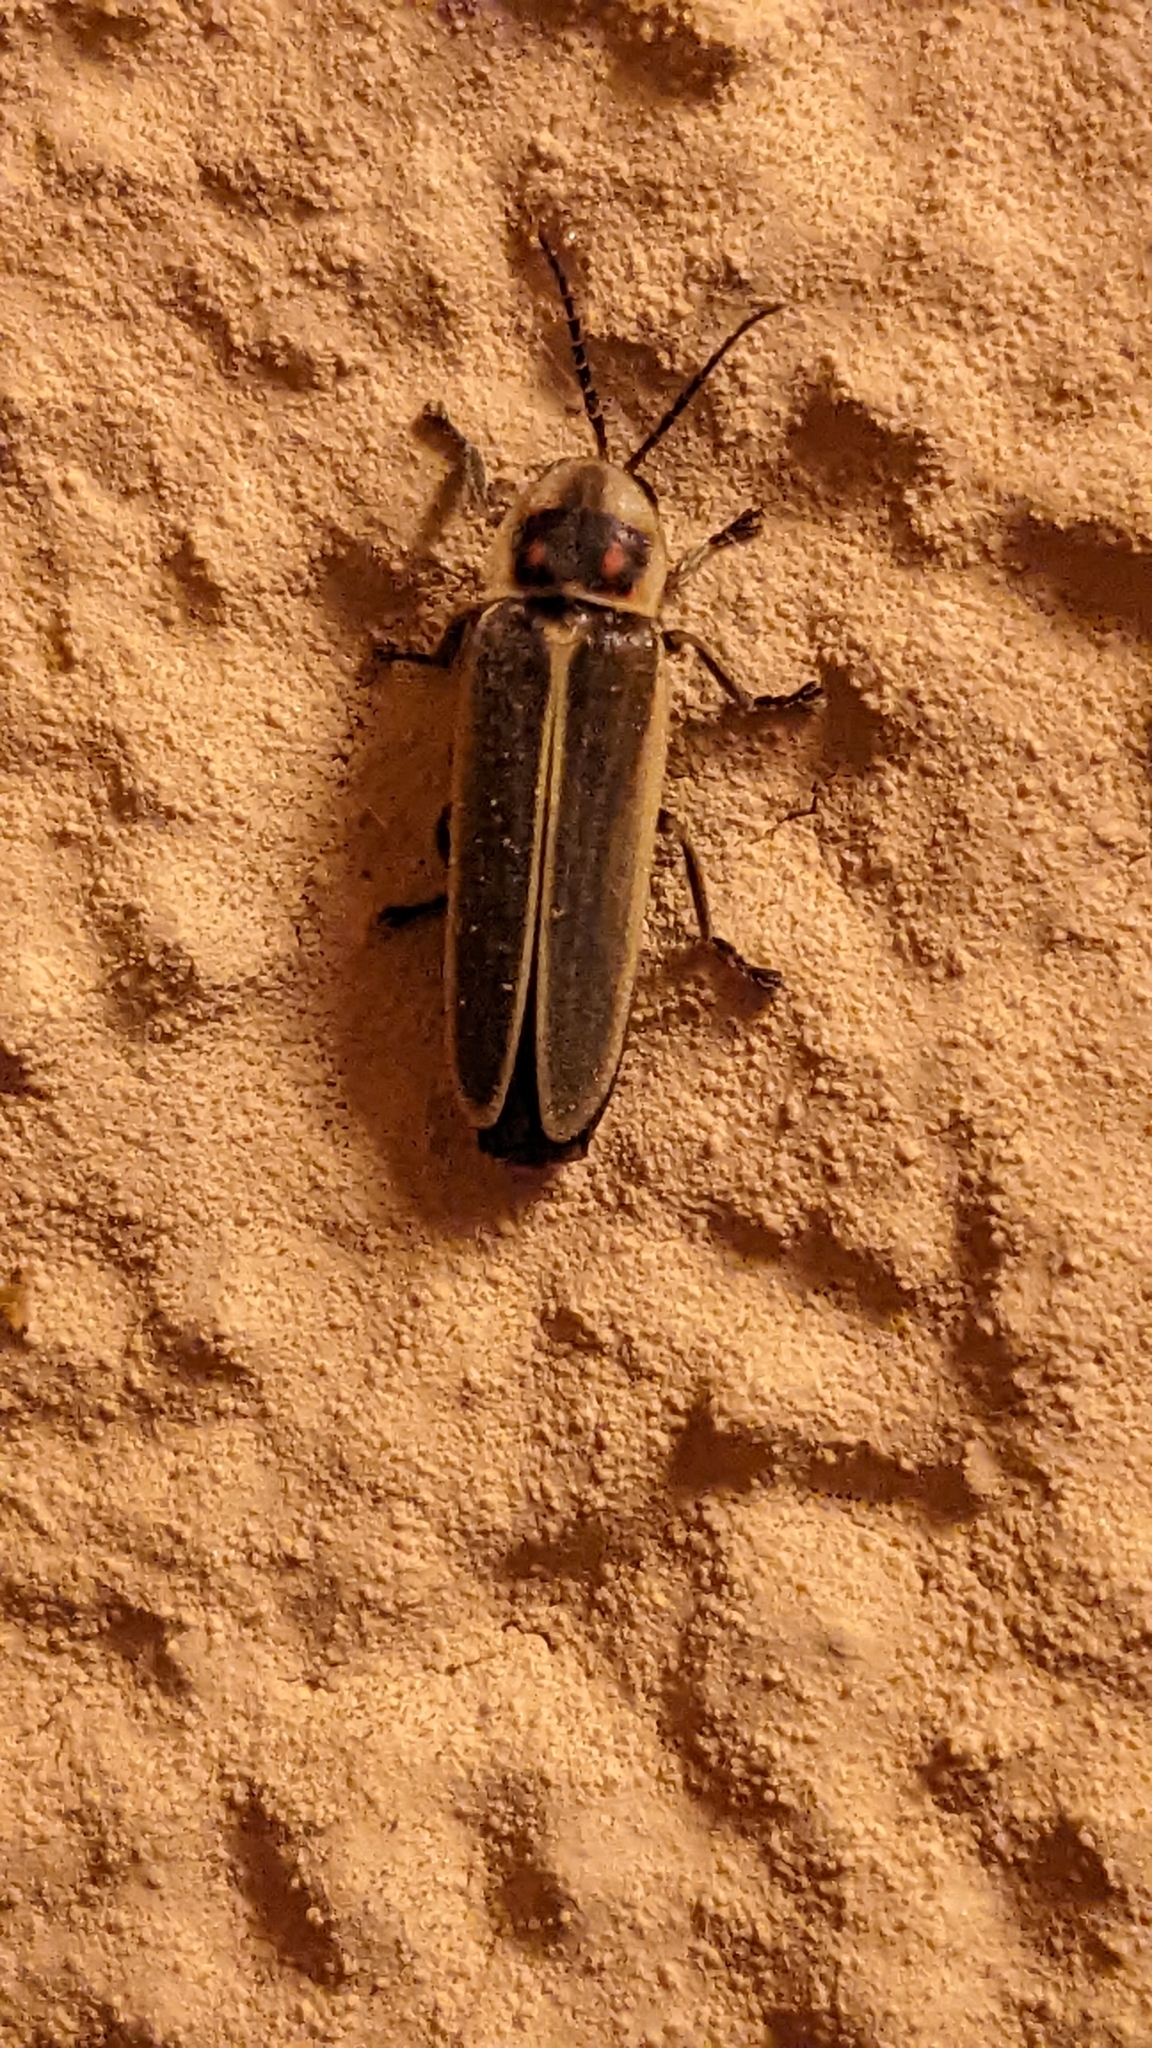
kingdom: Animalia
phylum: Arthropoda
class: Insecta
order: Coleoptera
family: Lampyridae
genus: Photinus
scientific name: Photinus signaticollis
